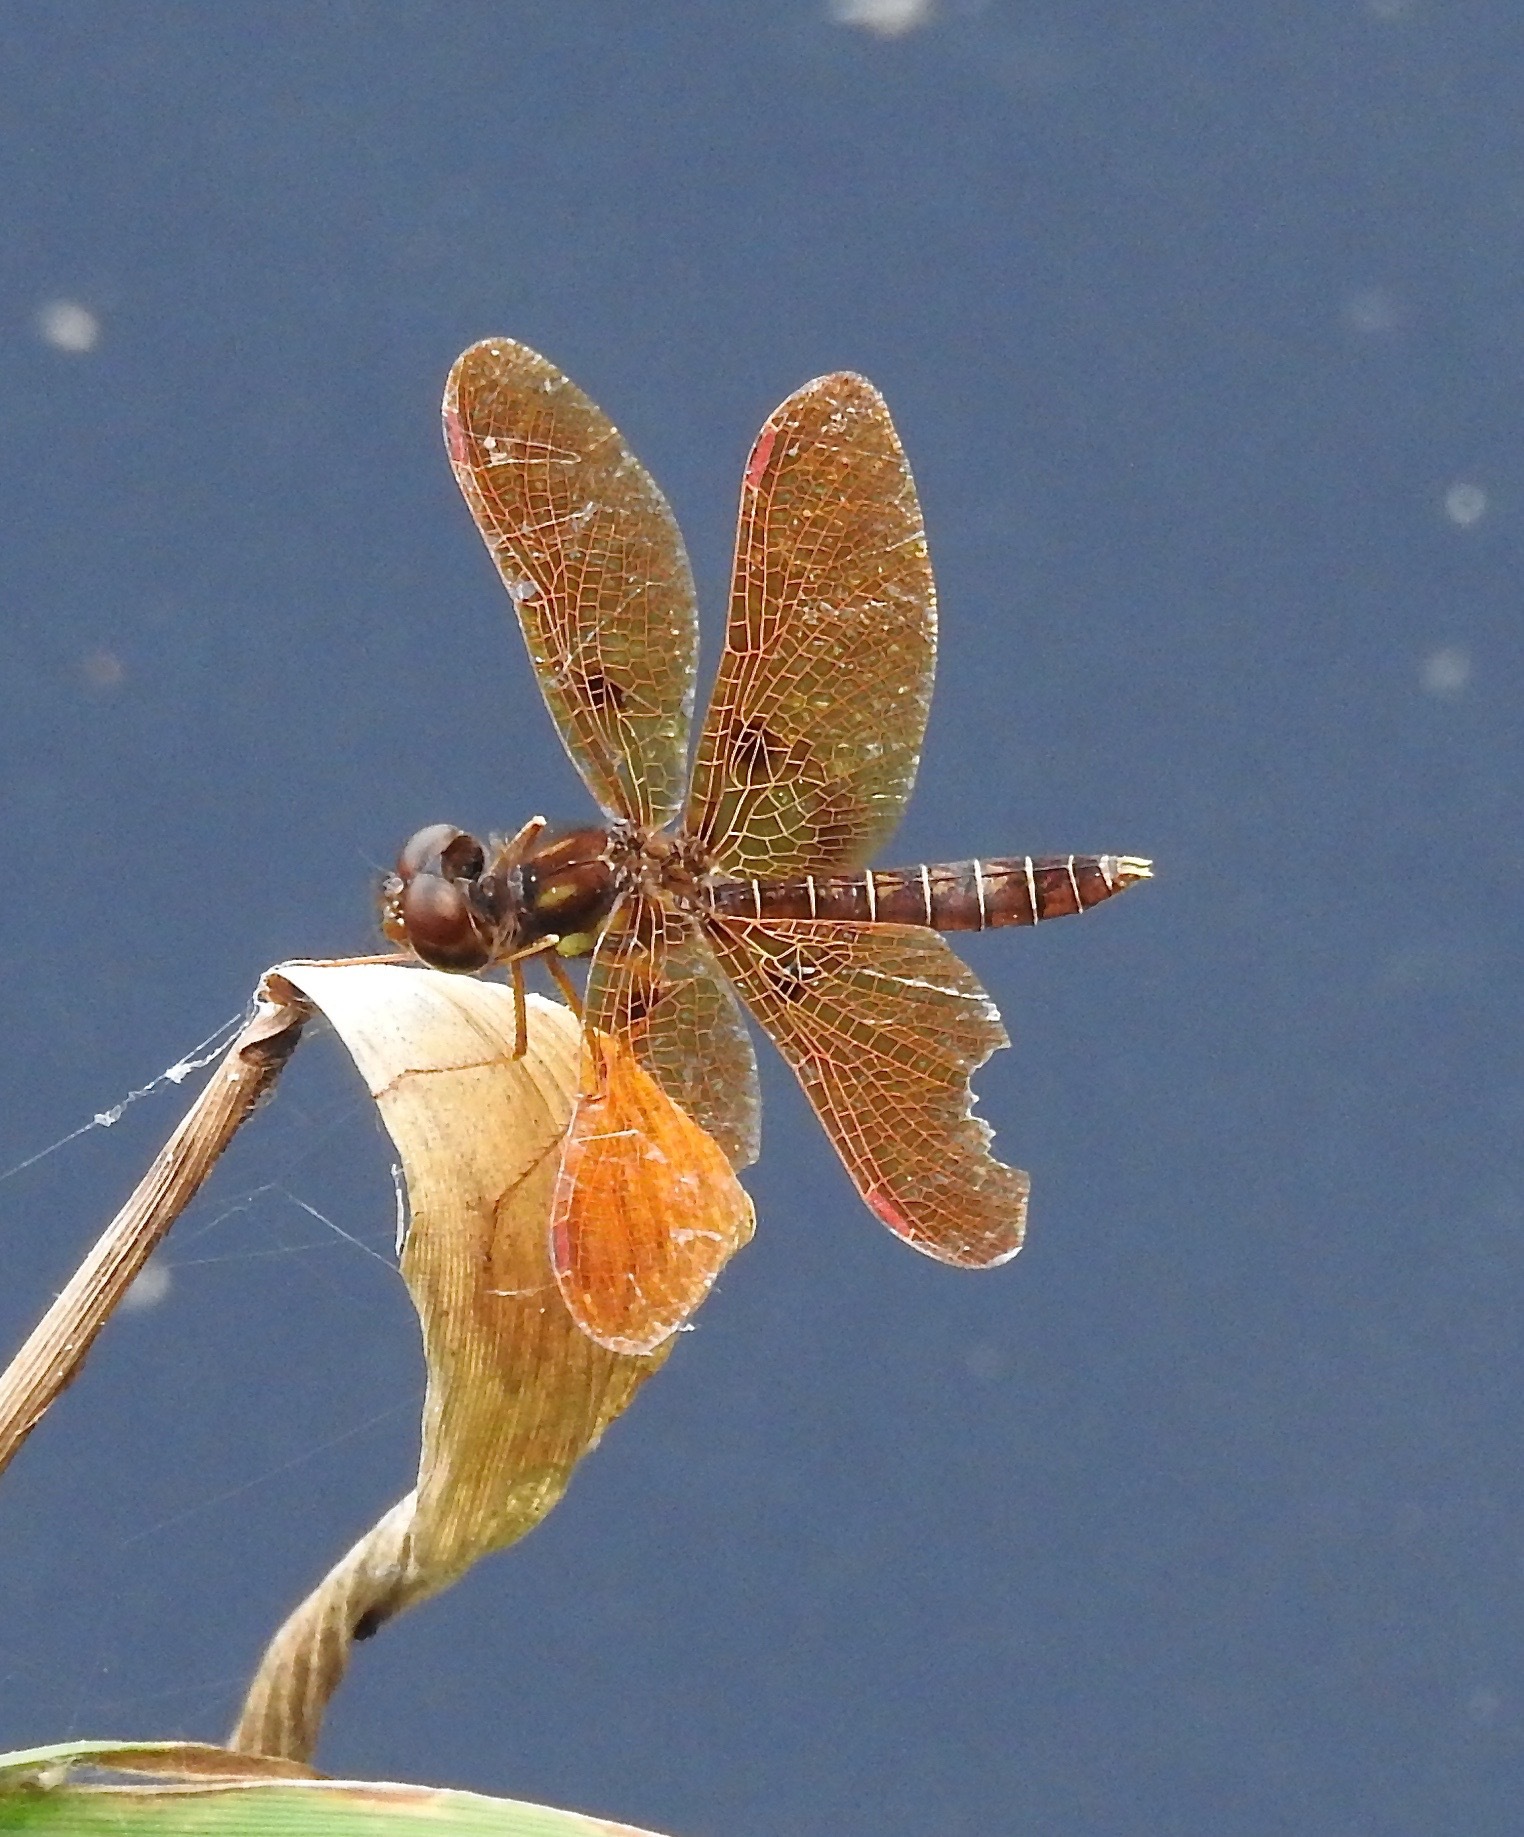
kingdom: Animalia
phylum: Arthropoda
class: Insecta
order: Odonata
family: Libellulidae
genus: Perithemis
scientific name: Perithemis tenera
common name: Eastern amberwing
